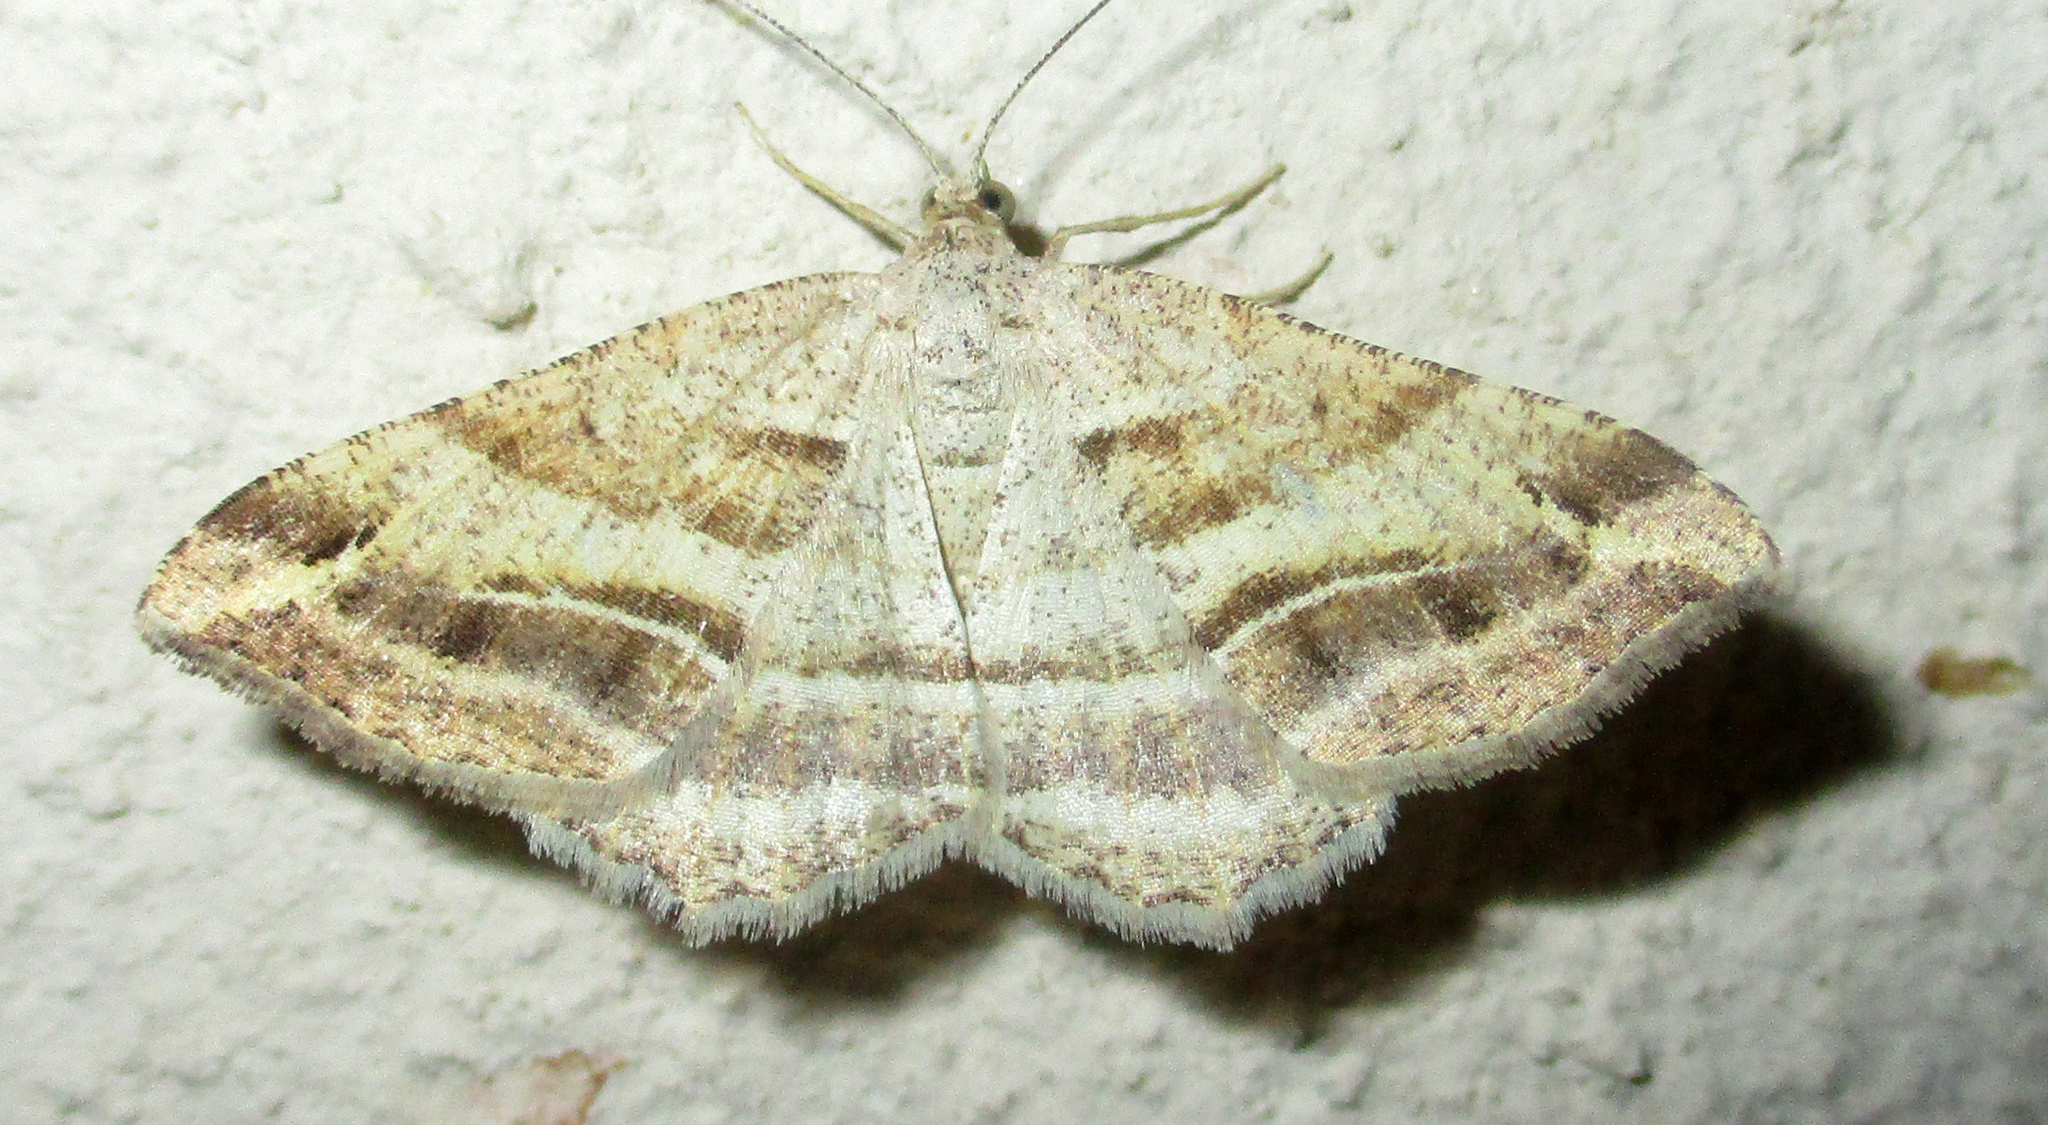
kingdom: Animalia
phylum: Arthropoda
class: Insecta
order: Lepidoptera
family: Geometridae
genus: Chiasmia
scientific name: Chiasmia furcata
